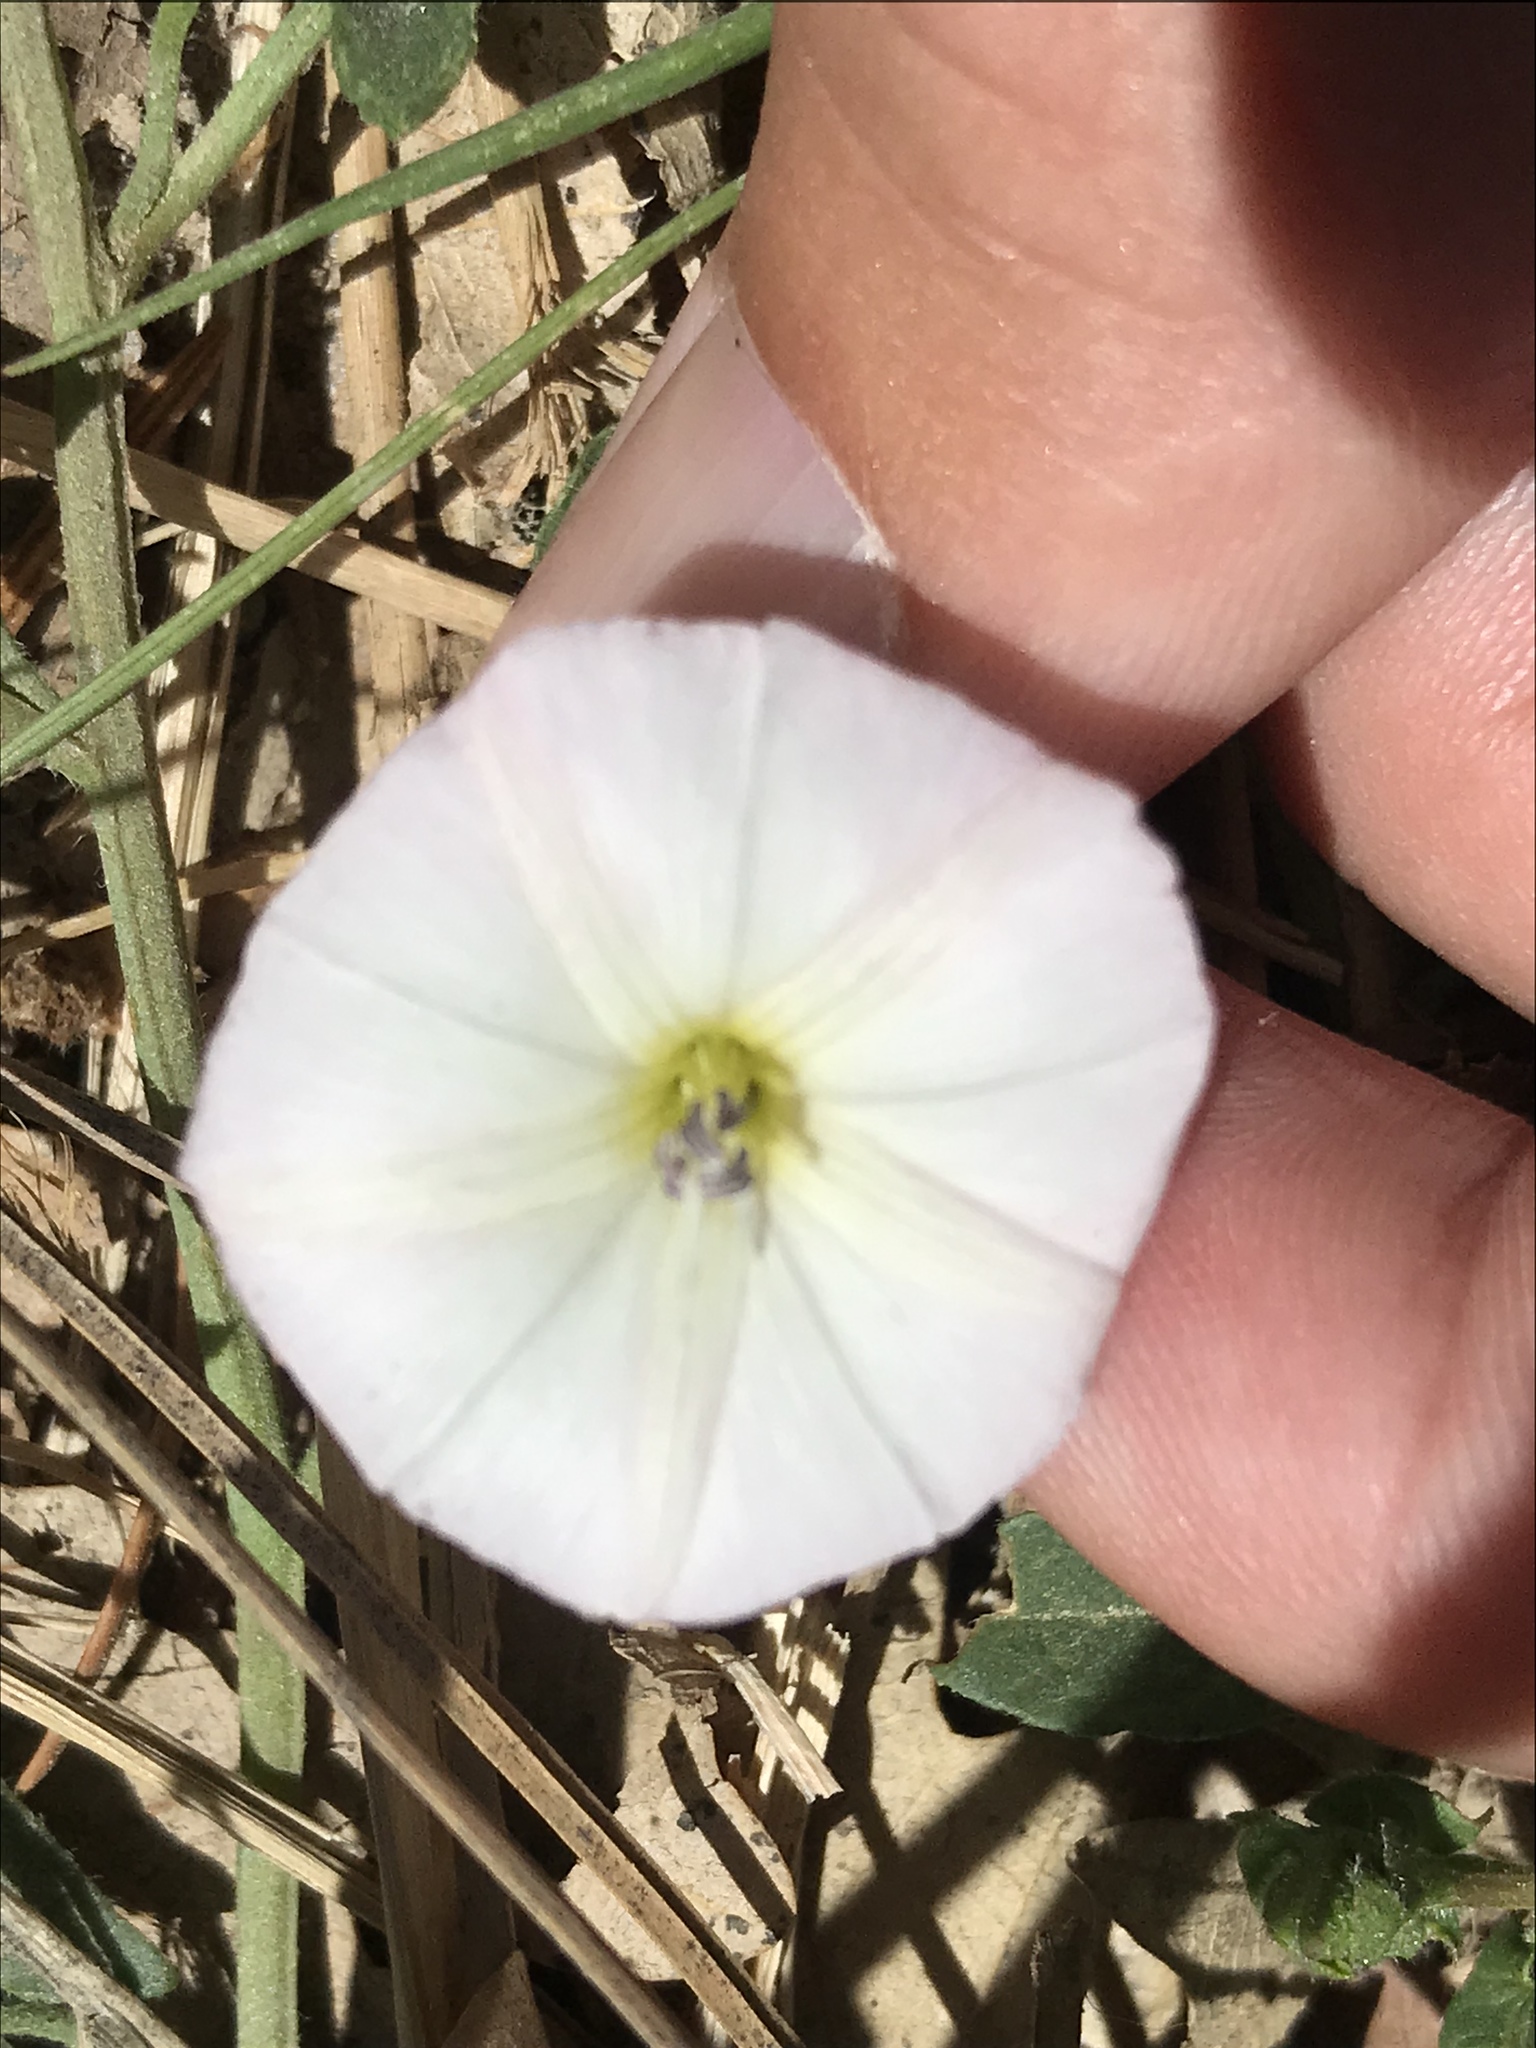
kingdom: Plantae
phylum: Tracheophyta
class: Magnoliopsida
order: Solanales
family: Convolvulaceae
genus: Convolvulus
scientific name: Convolvulus arvensis
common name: Field bindweed
